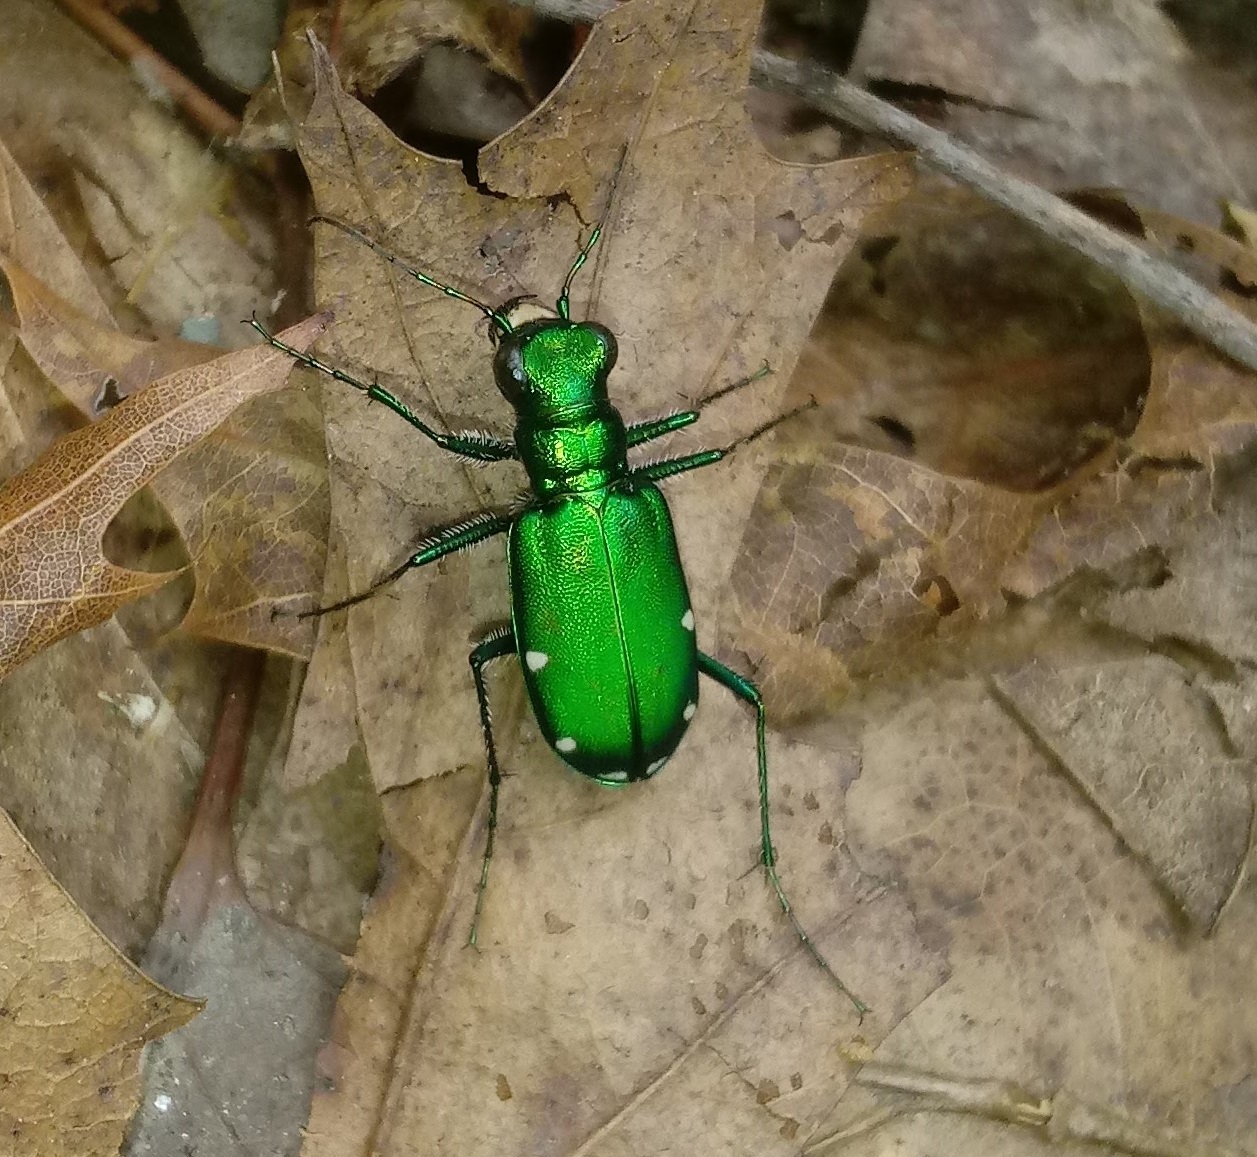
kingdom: Animalia
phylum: Arthropoda
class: Insecta
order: Coleoptera
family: Carabidae
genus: Cicindela
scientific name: Cicindela sexguttata
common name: Six-spotted tiger beetle
